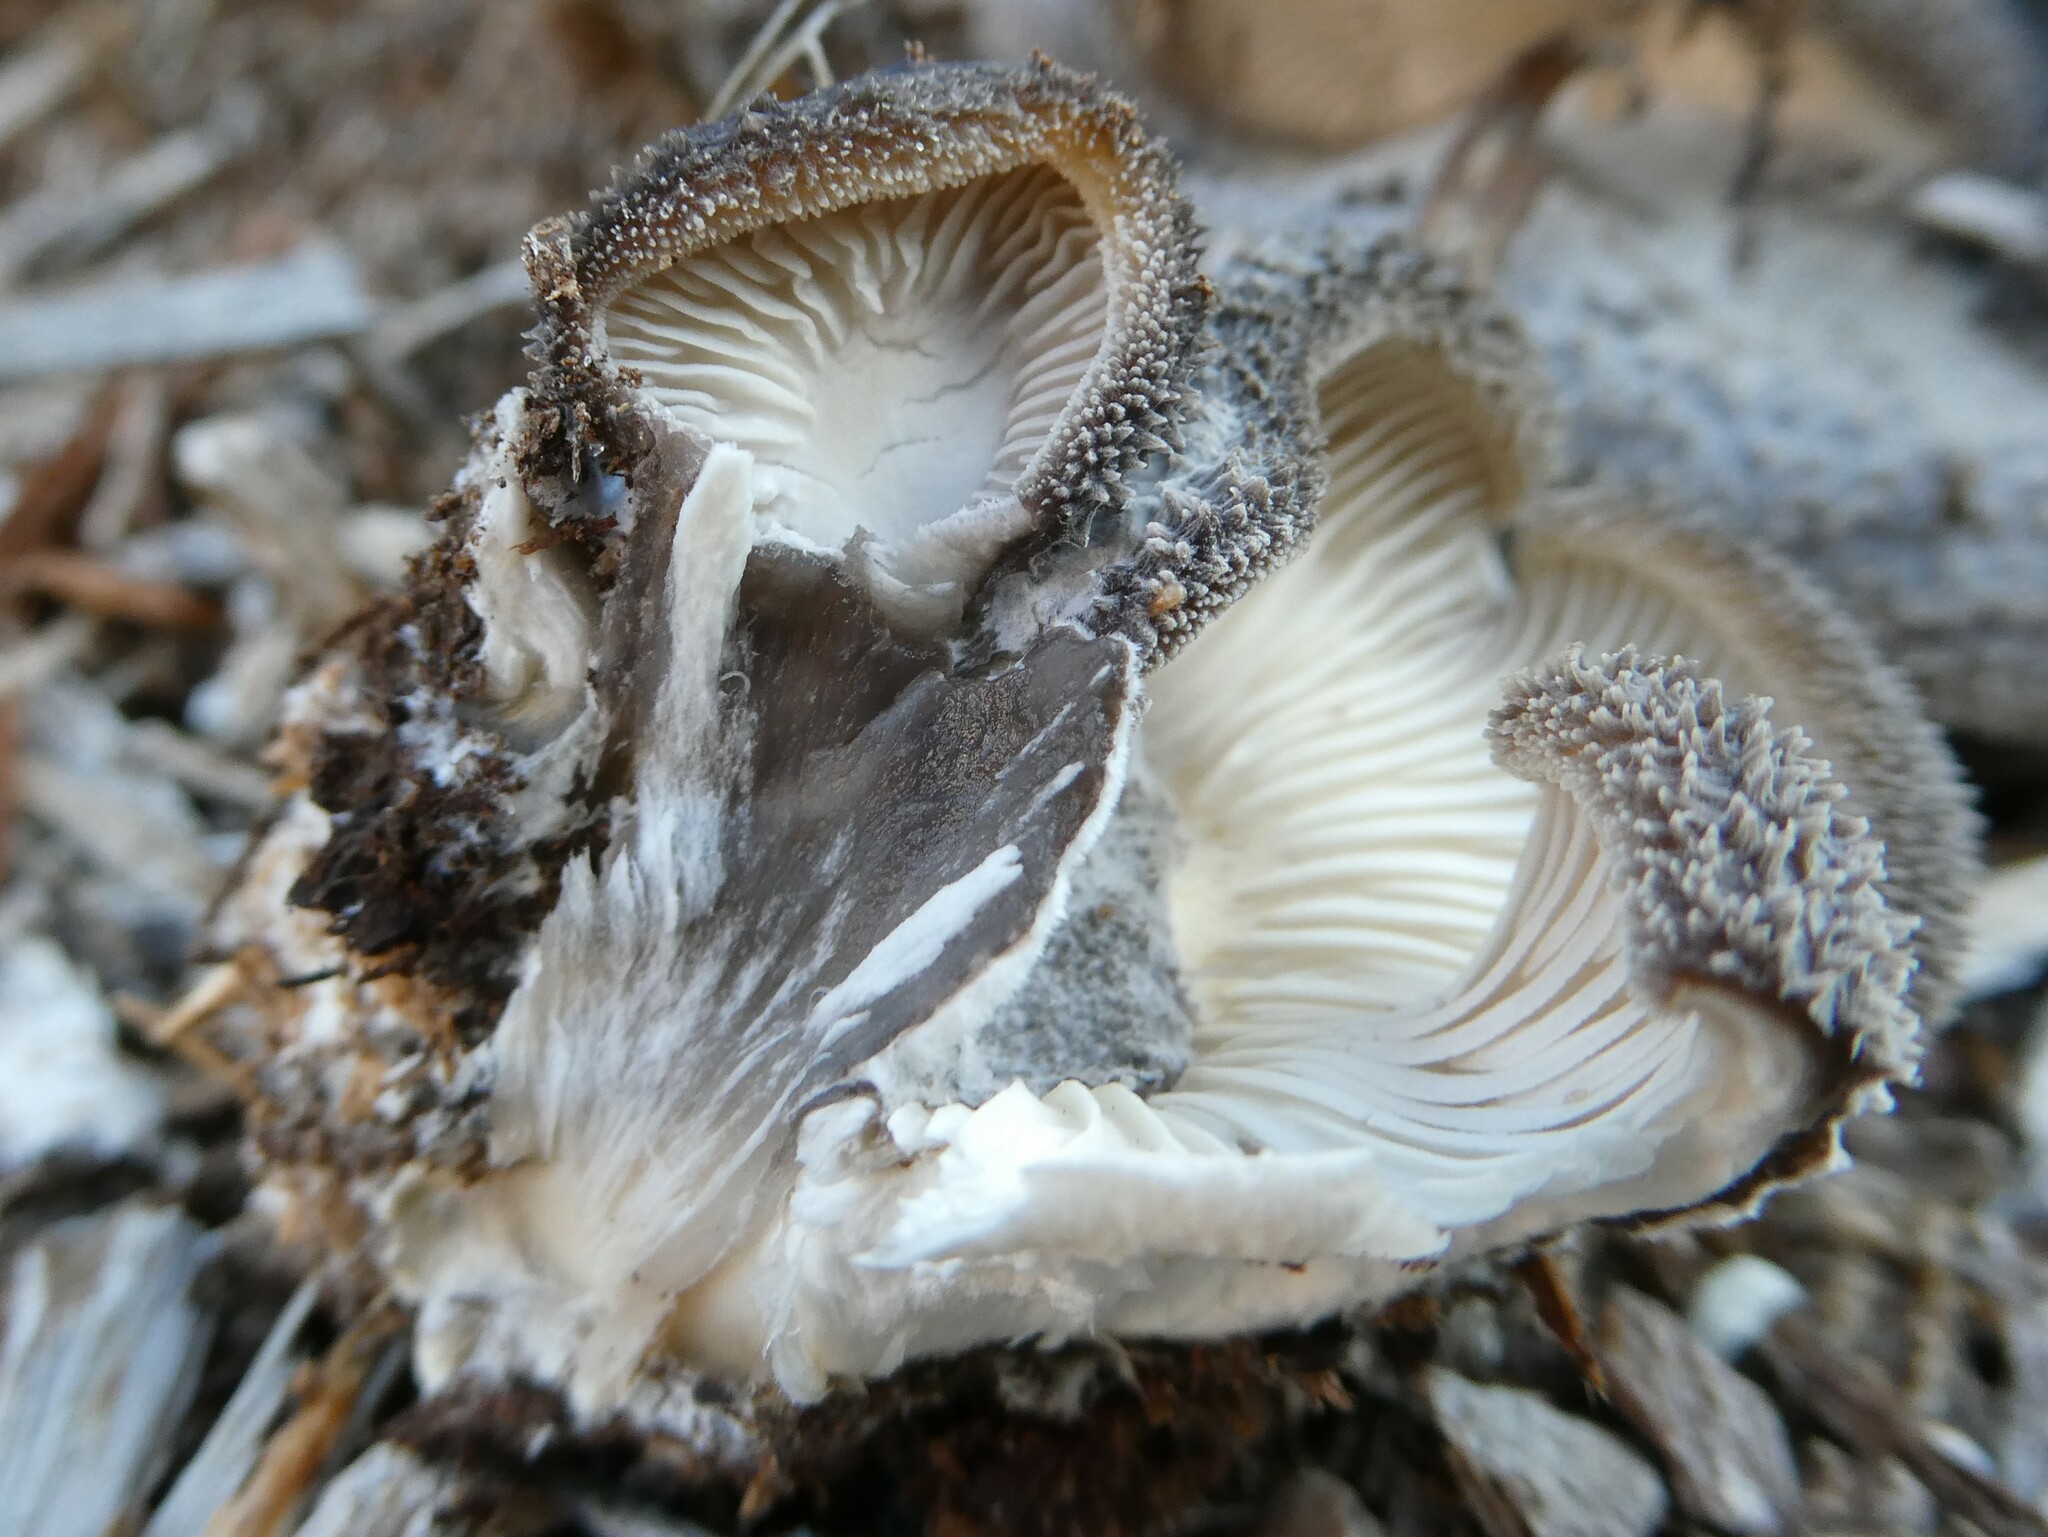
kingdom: Fungi
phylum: Basidiomycota
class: Agaricomycetes
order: Agaricales
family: Pleurotaceae
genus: Hohenbuehelia
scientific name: Hohenbuehelia mastrucata
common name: Woolly oyster
